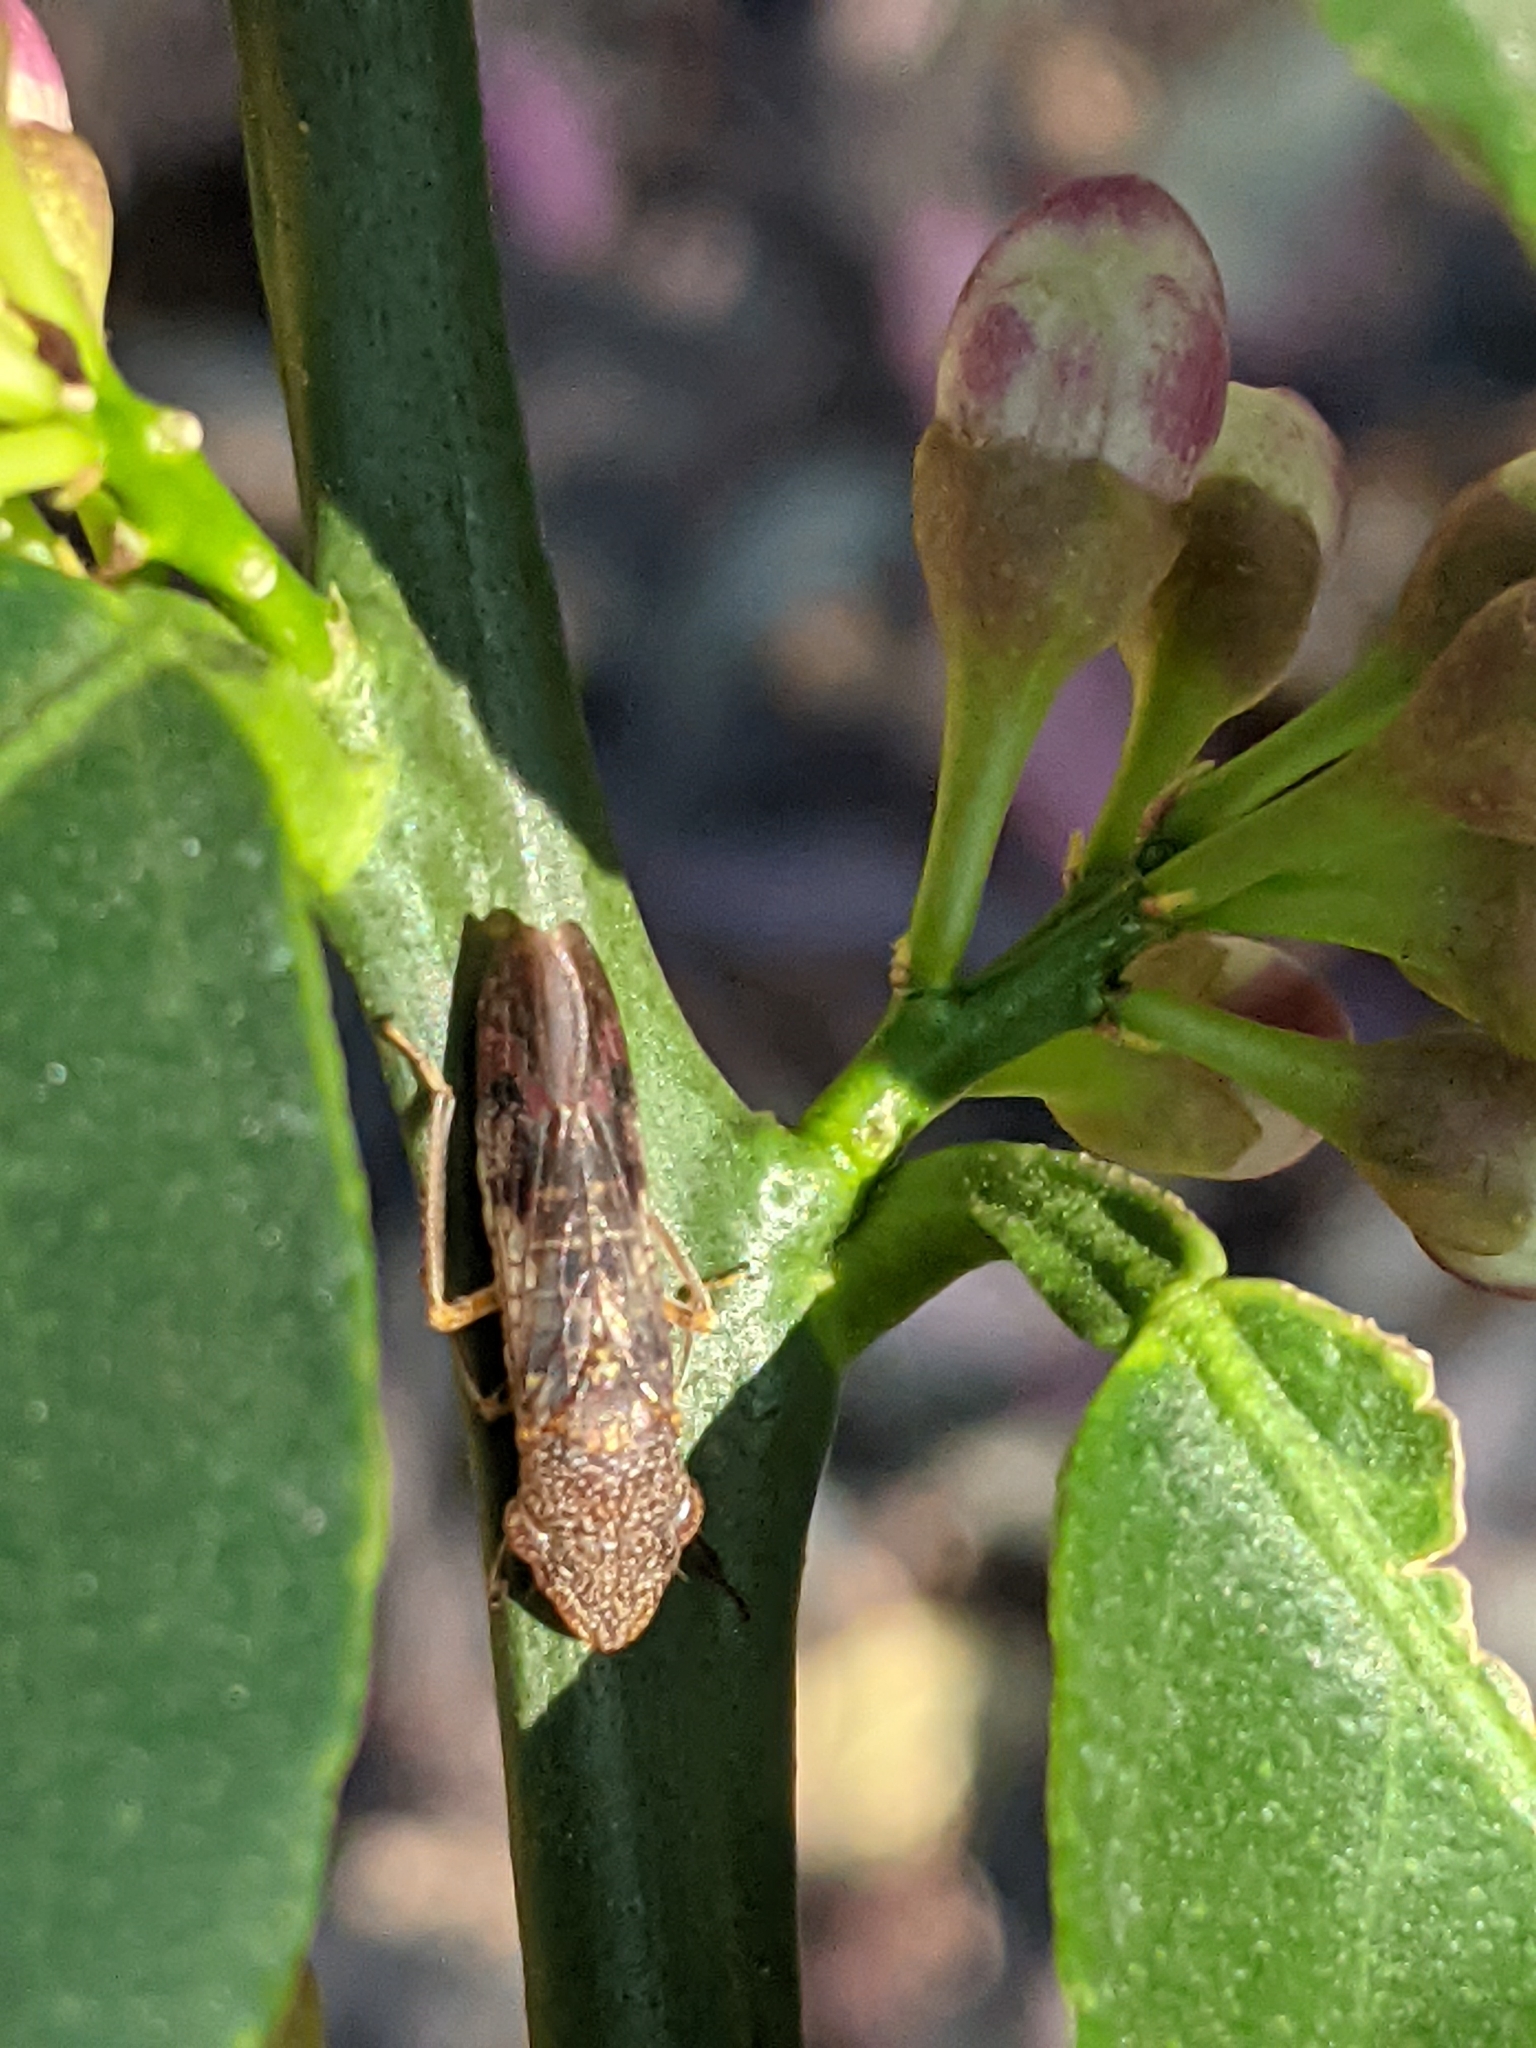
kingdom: Animalia
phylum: Arthropoda
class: Insecta
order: Hemiptera
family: Cicadellidae
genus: Homalodisca
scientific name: Homalodisca vitripennis
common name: Glassy-winged sharpshooter
